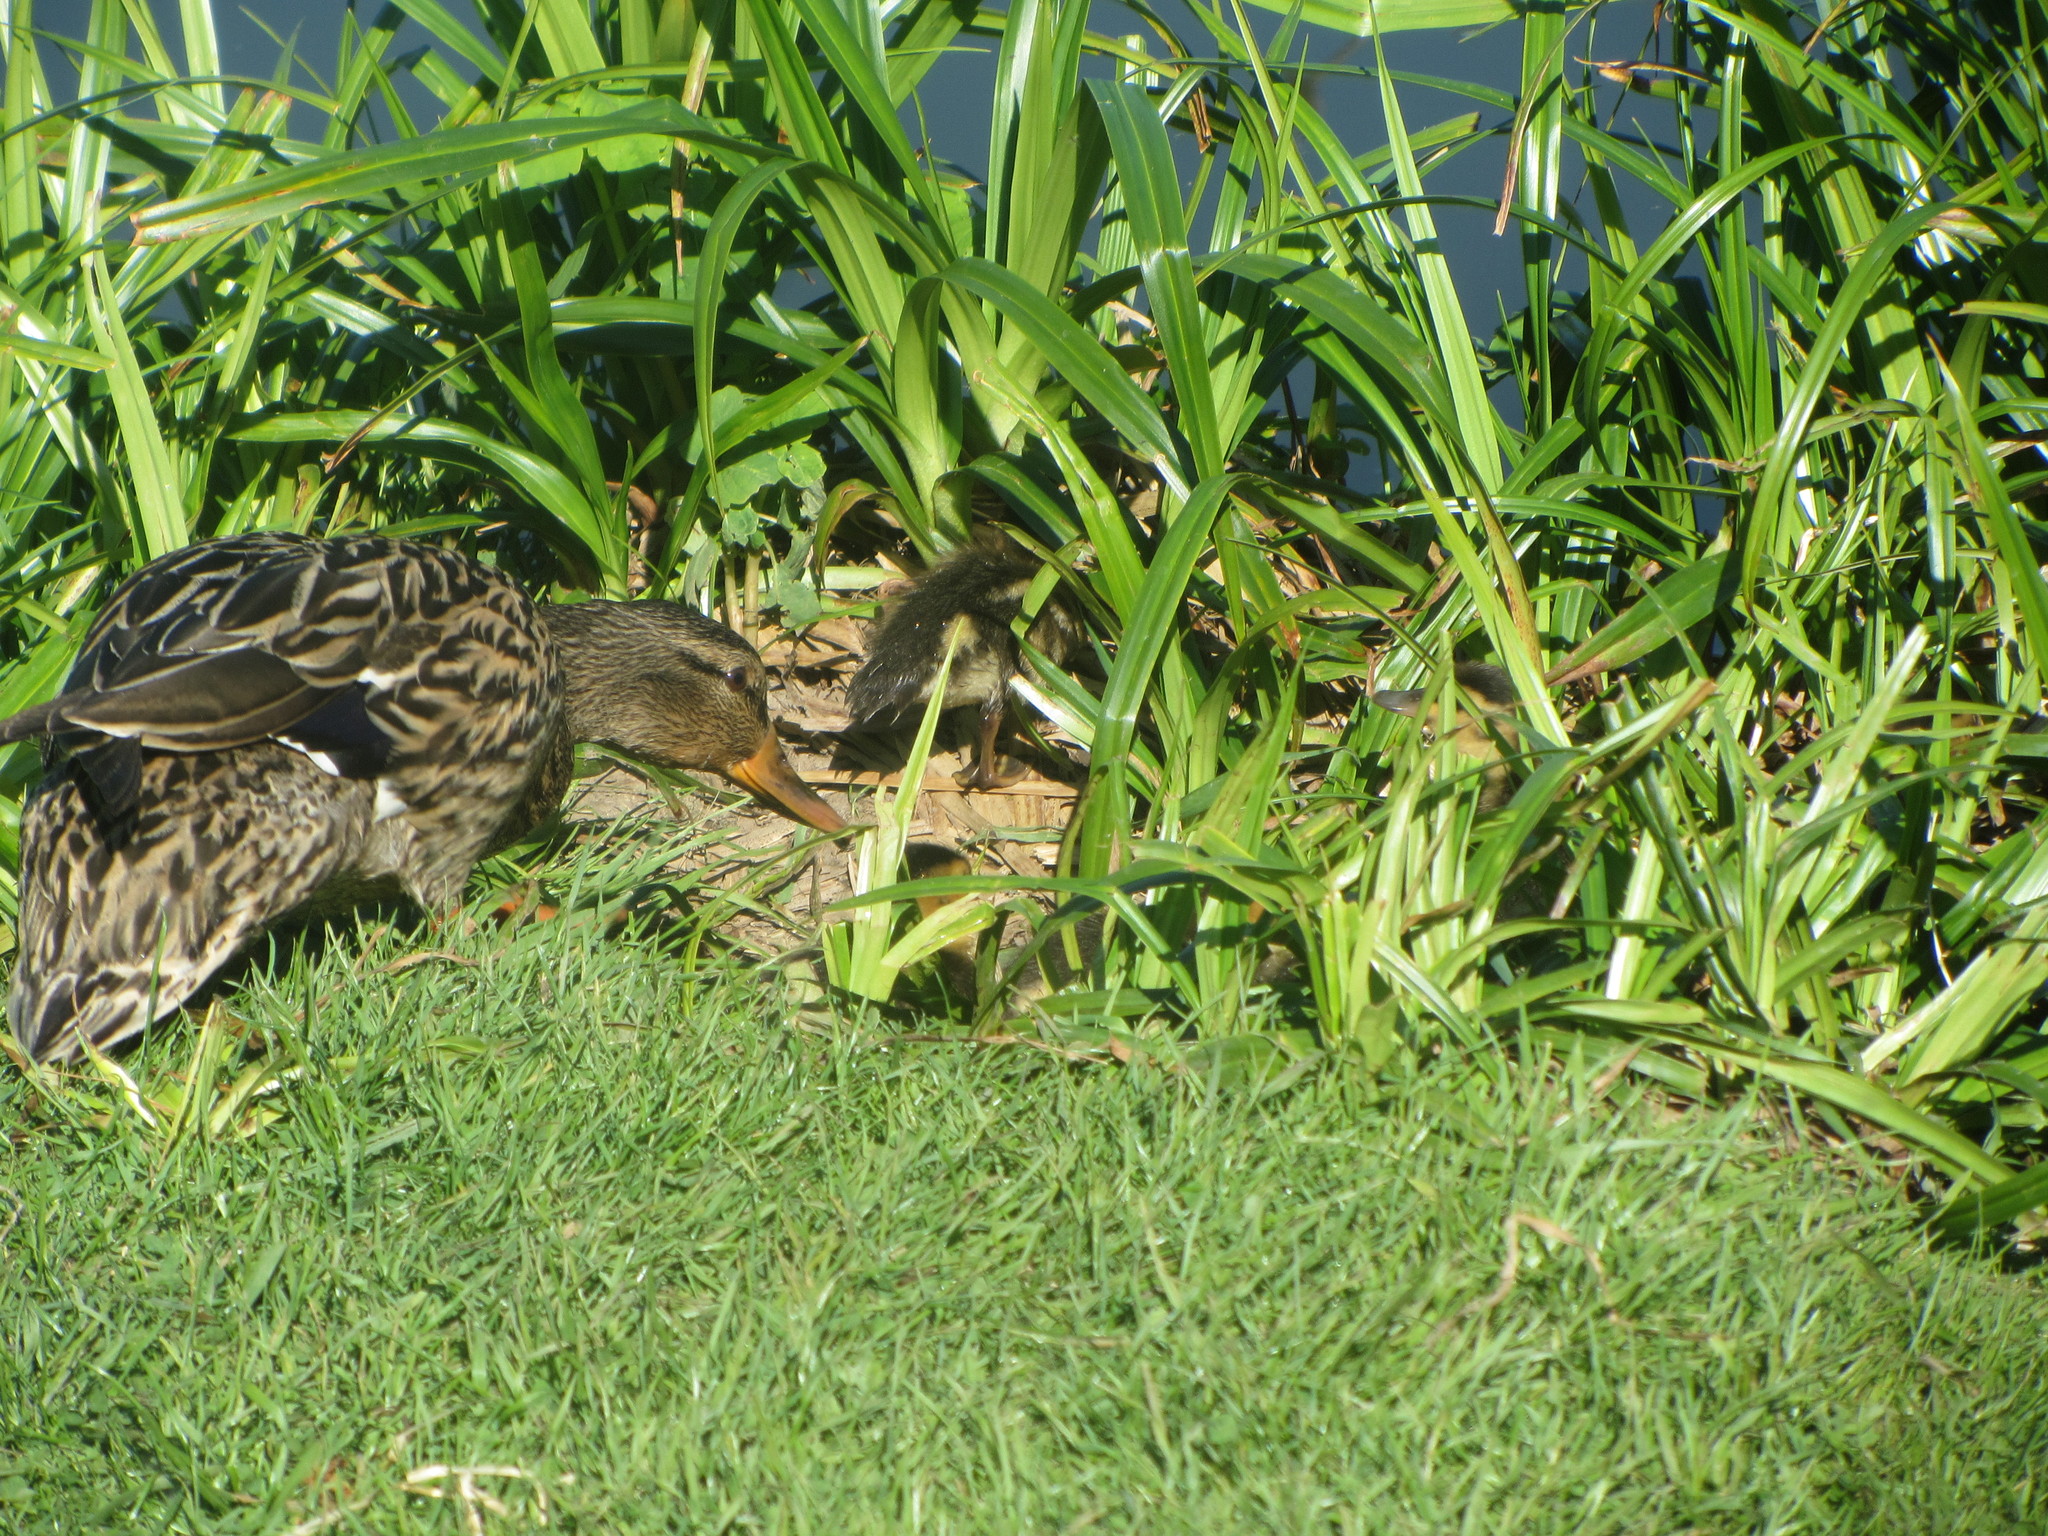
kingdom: Animalia
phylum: Chordata
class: Aves
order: Anseriformes
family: Anatidae
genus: Anas
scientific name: Anas platyrhynchos
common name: Mallard
